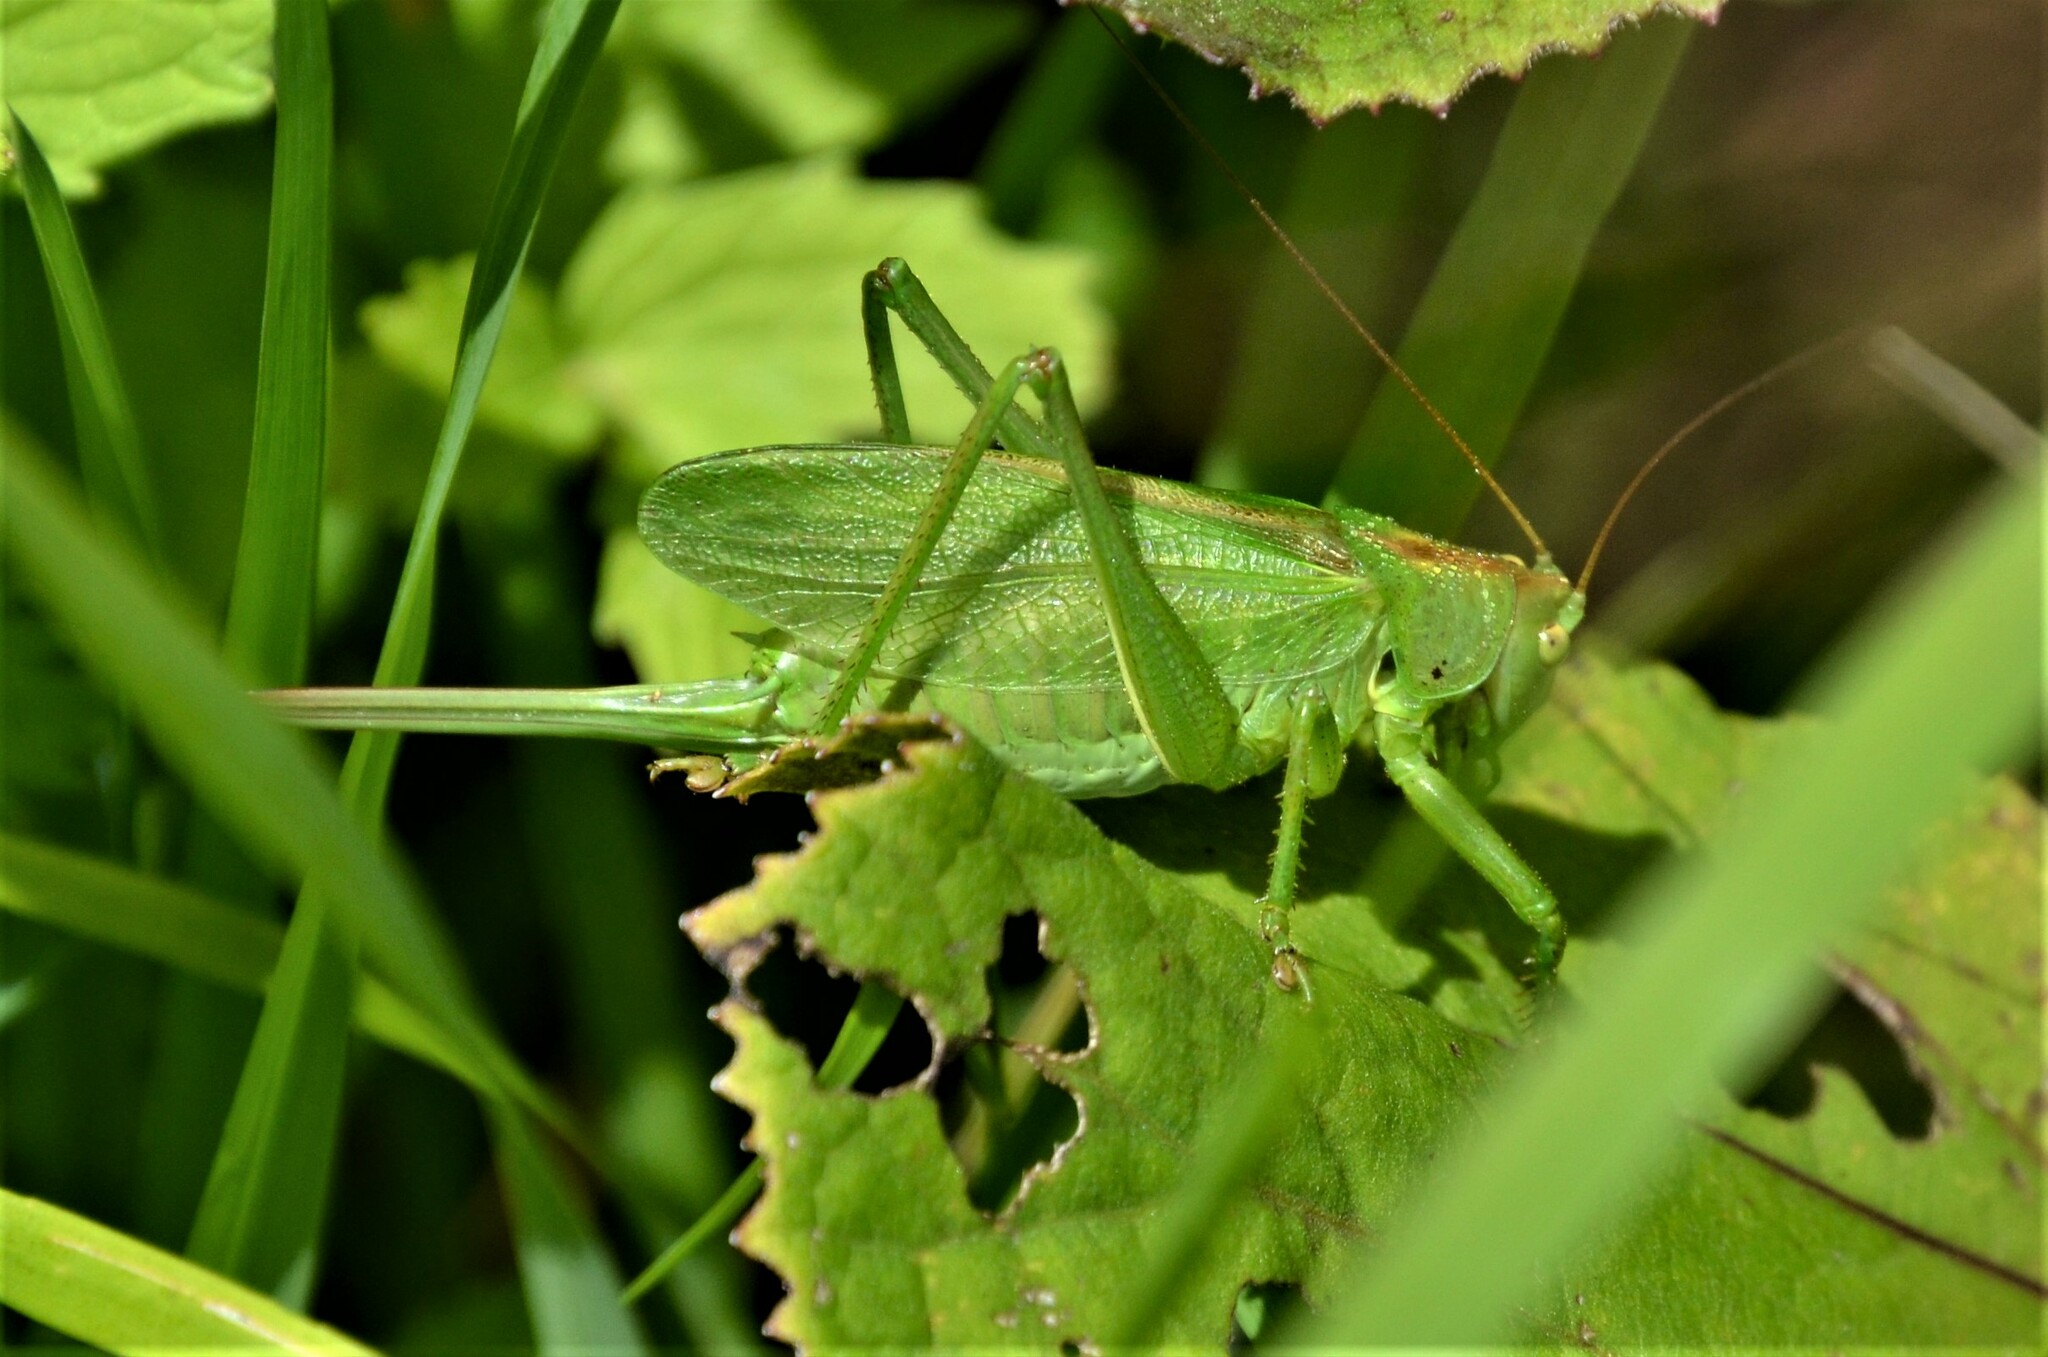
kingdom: Animalia
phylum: Arthropoda
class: Insecta
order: Orthoptera
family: Tettigoniidae
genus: Tettigonia
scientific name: Tettigonia cantans
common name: Upland green bush-cricket
